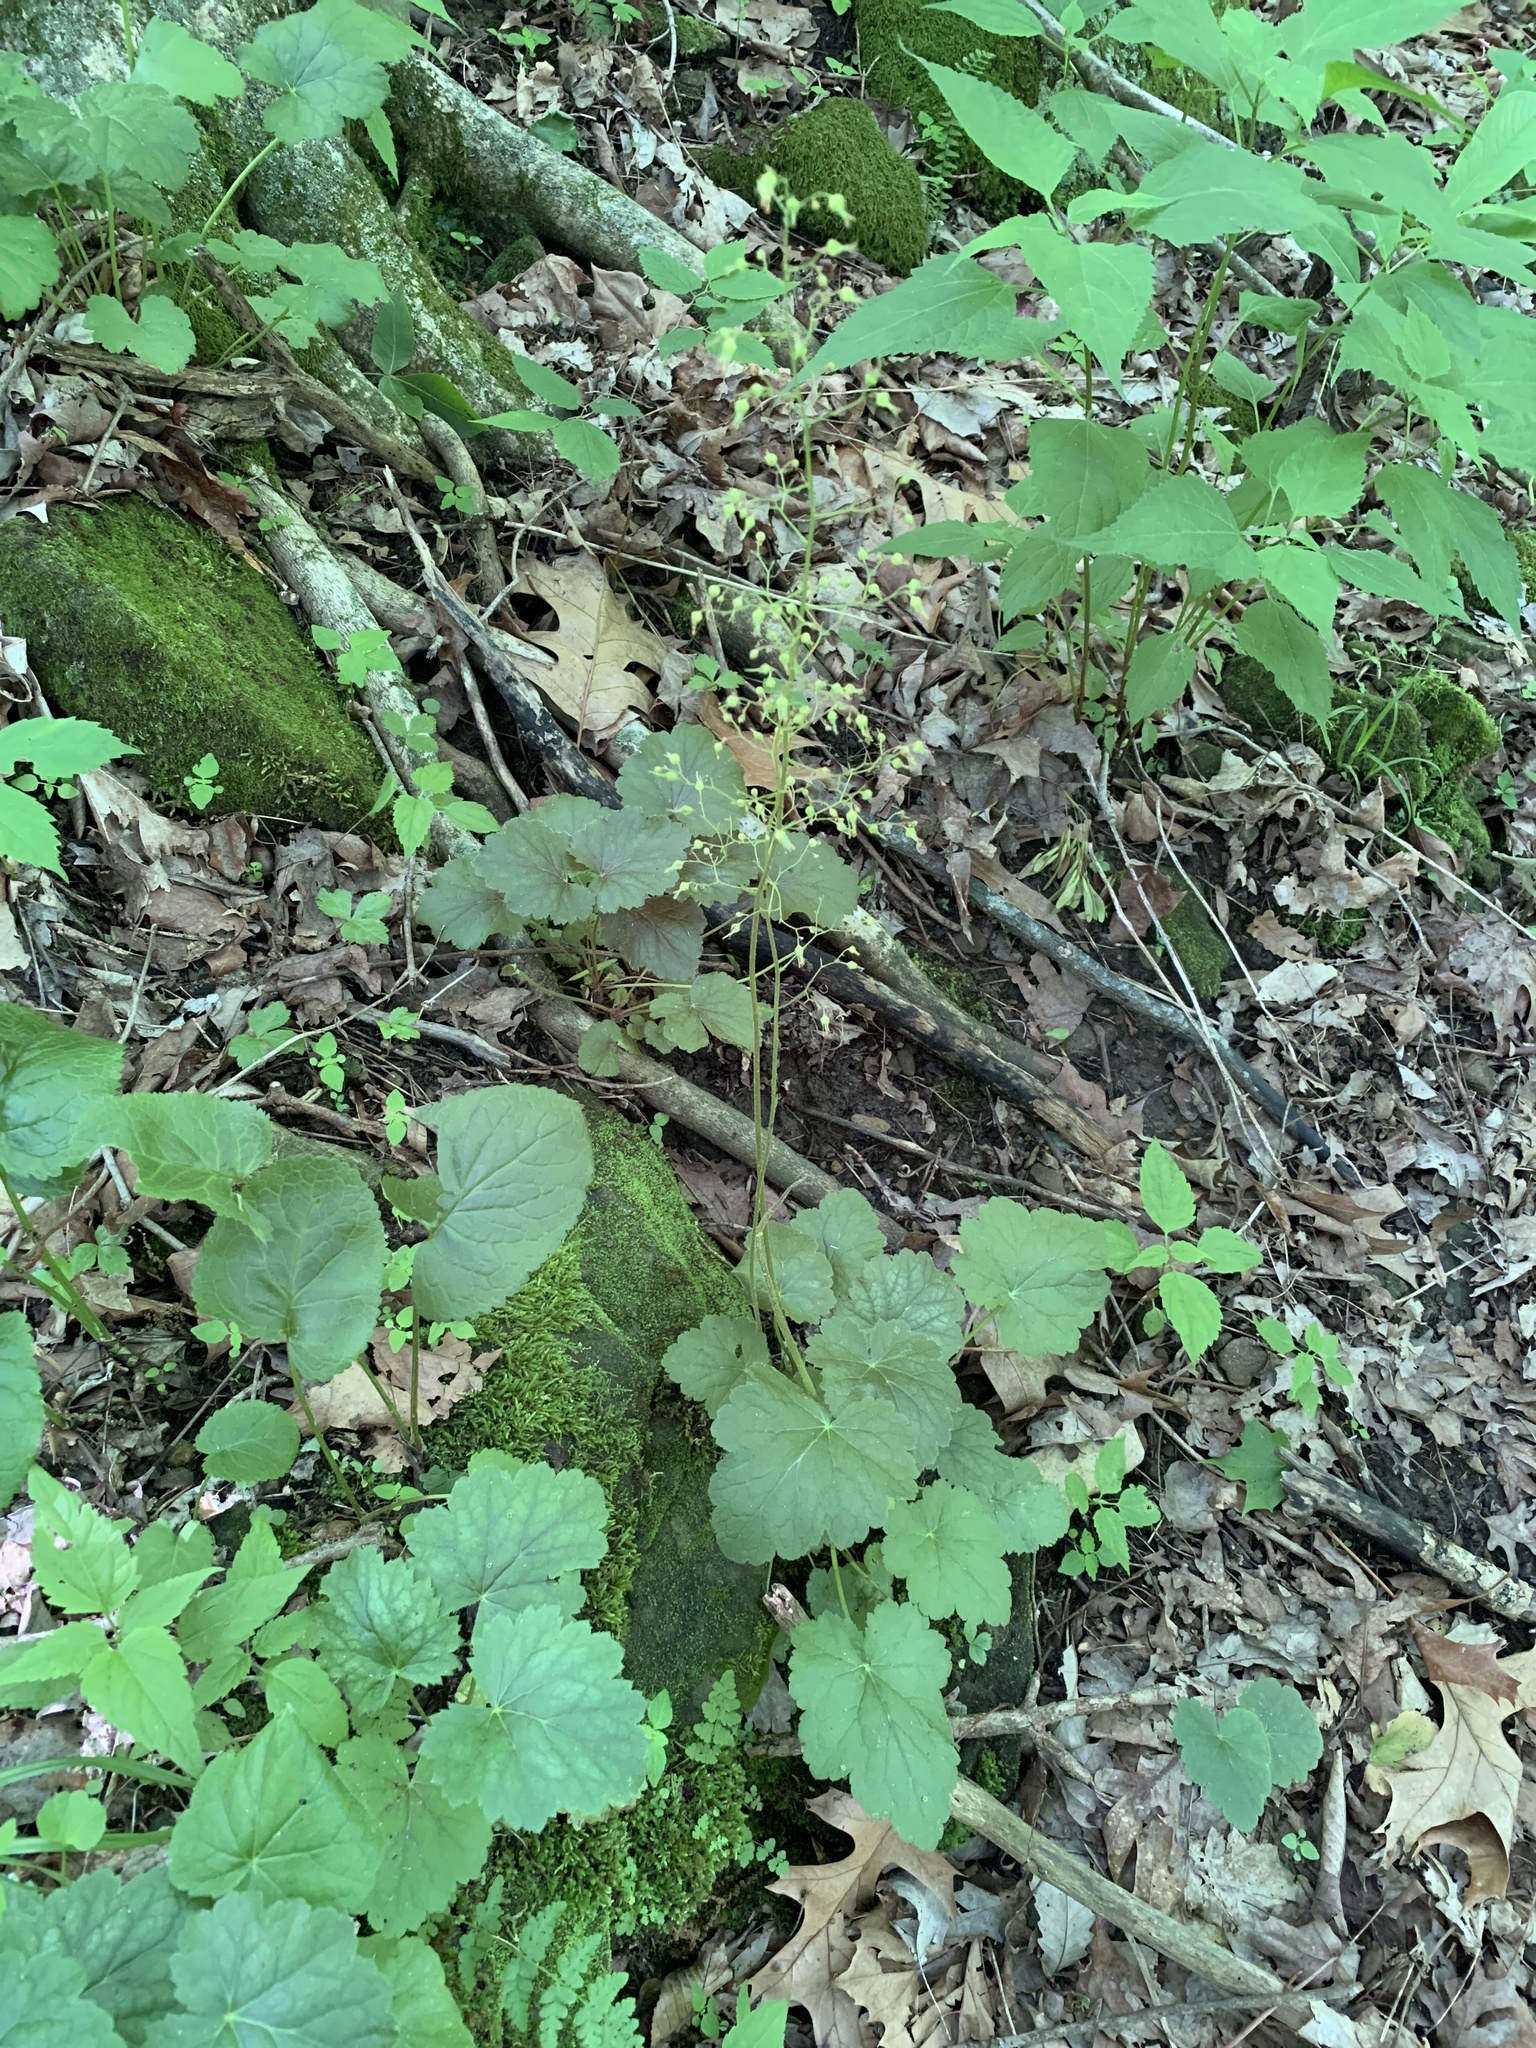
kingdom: Plantae
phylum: Tracheophyta
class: Magnoliopsida
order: Saxifragales
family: Saxifragaceae
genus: Heuchera
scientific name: Heuchera americana
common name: Alumroot
